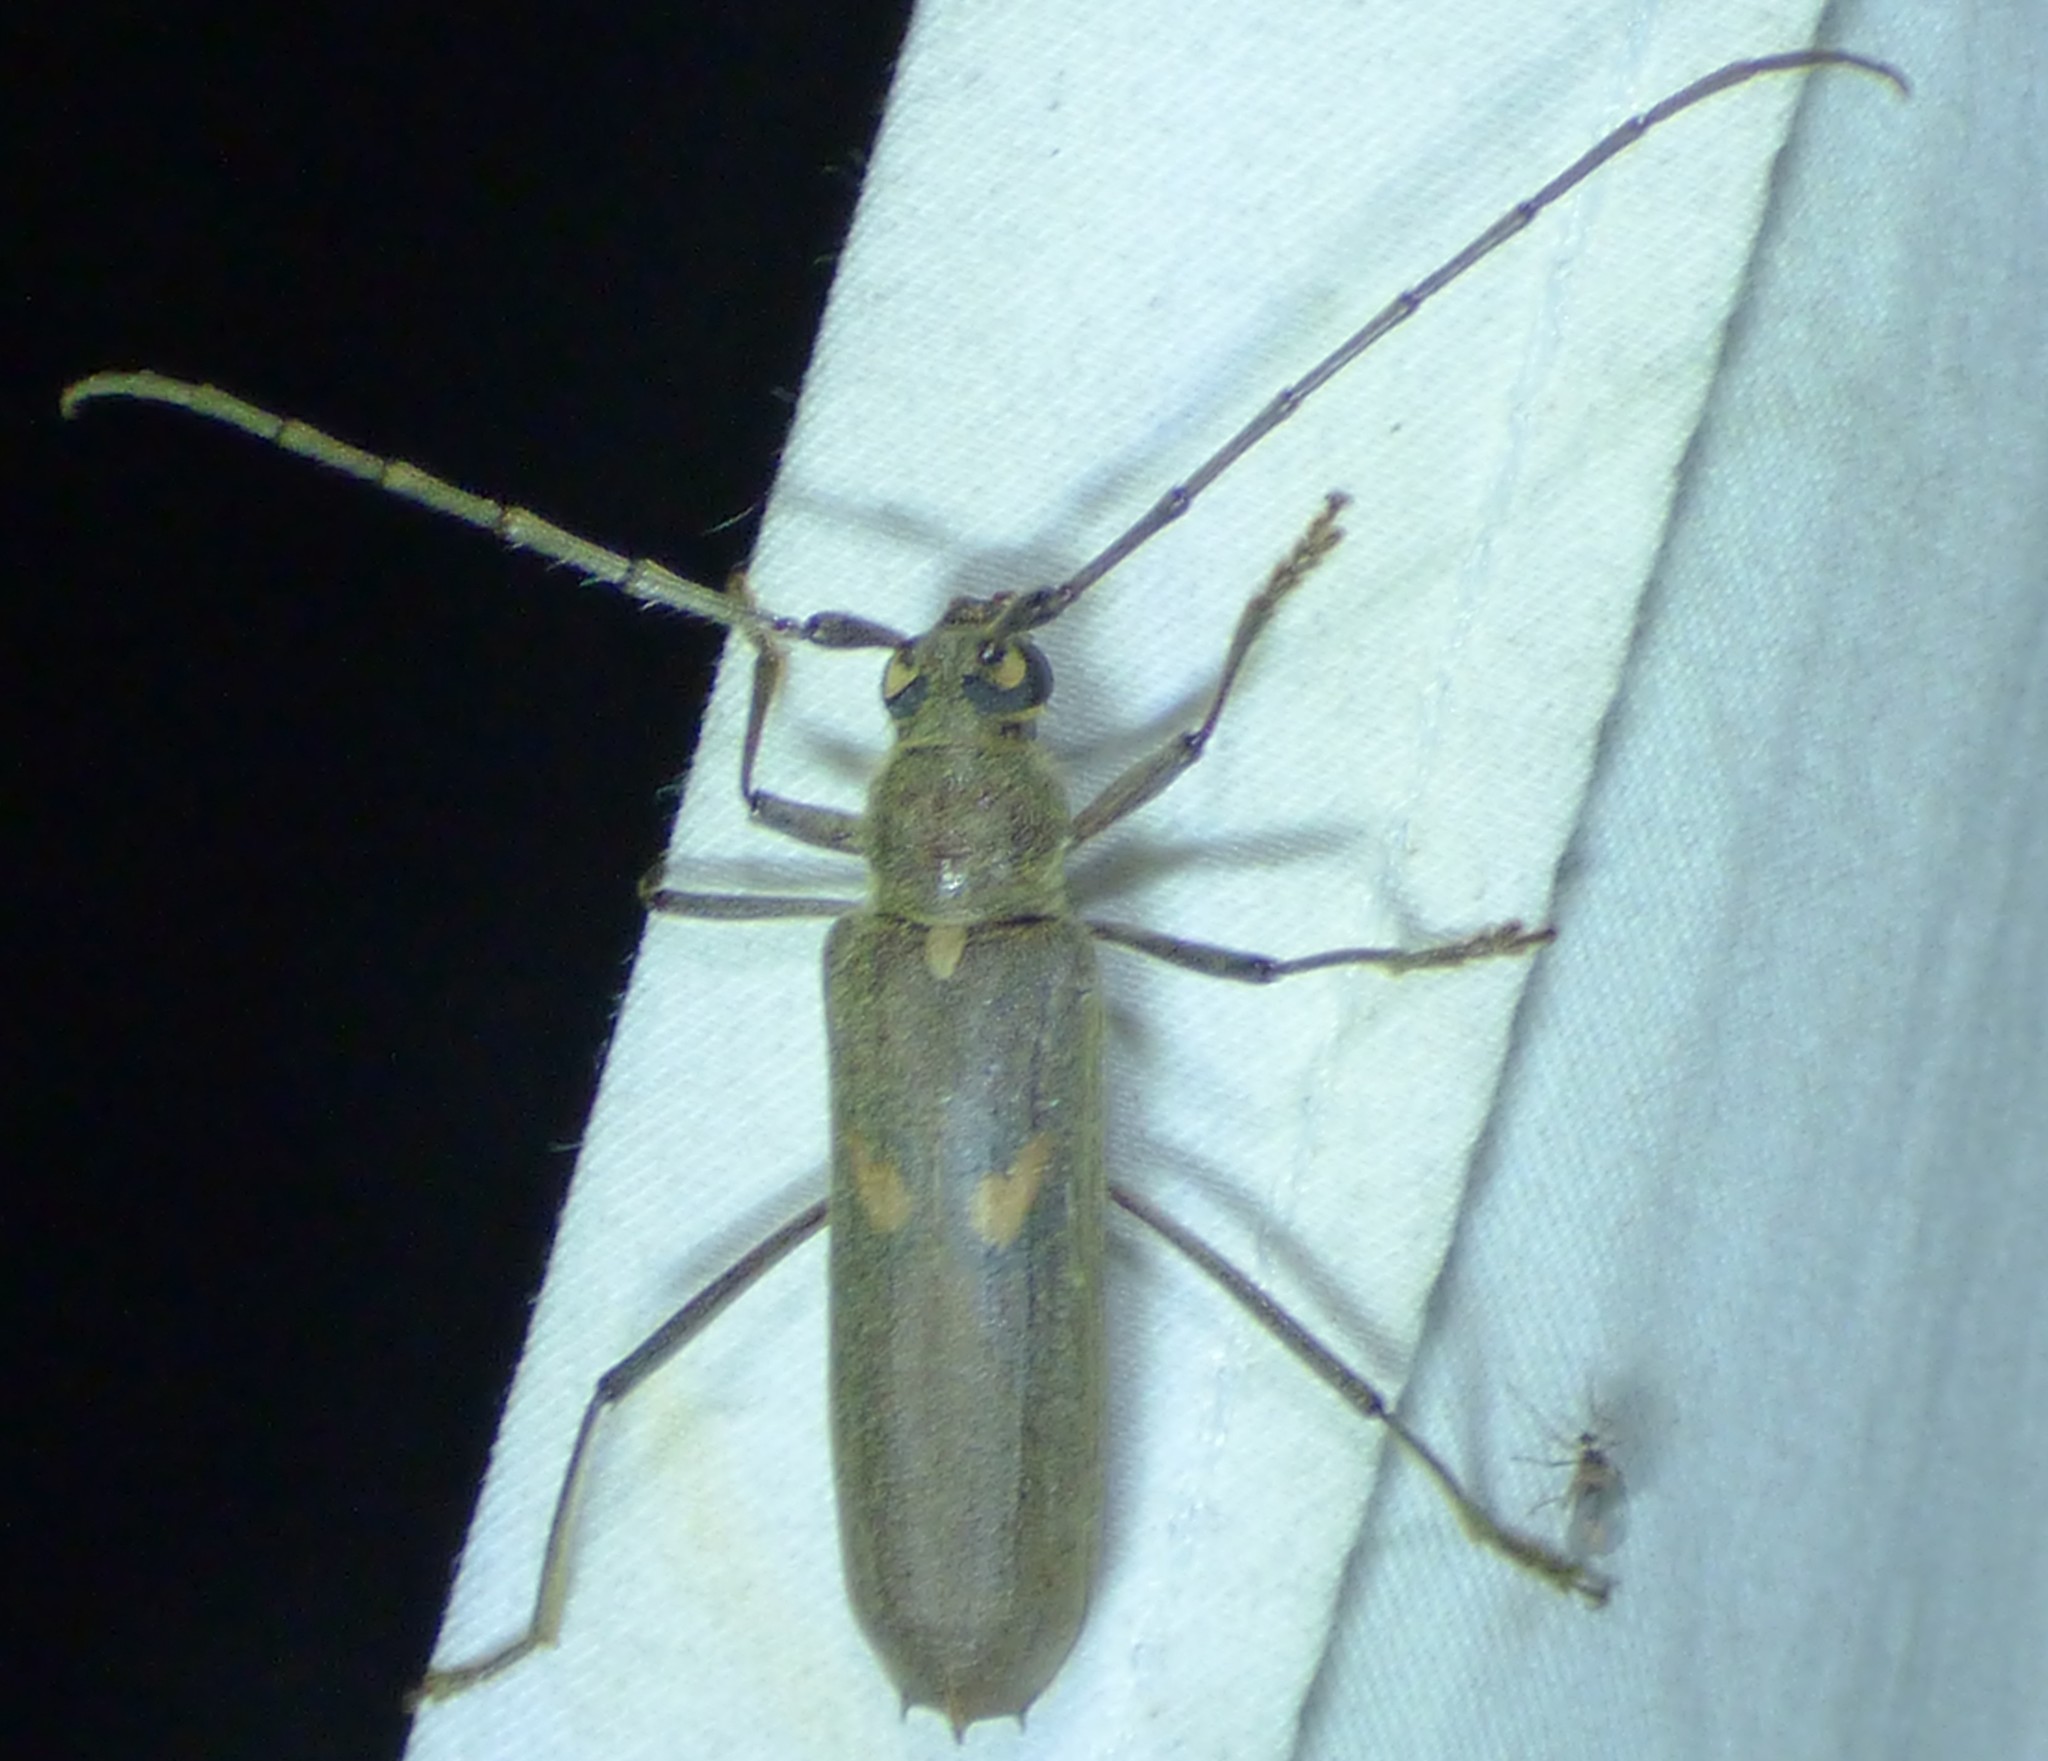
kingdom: Animalia
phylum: Arthropoda
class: Insecta
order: Coleoptera
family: Cerambycidae
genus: Knulliana
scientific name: Knulliana cincta
